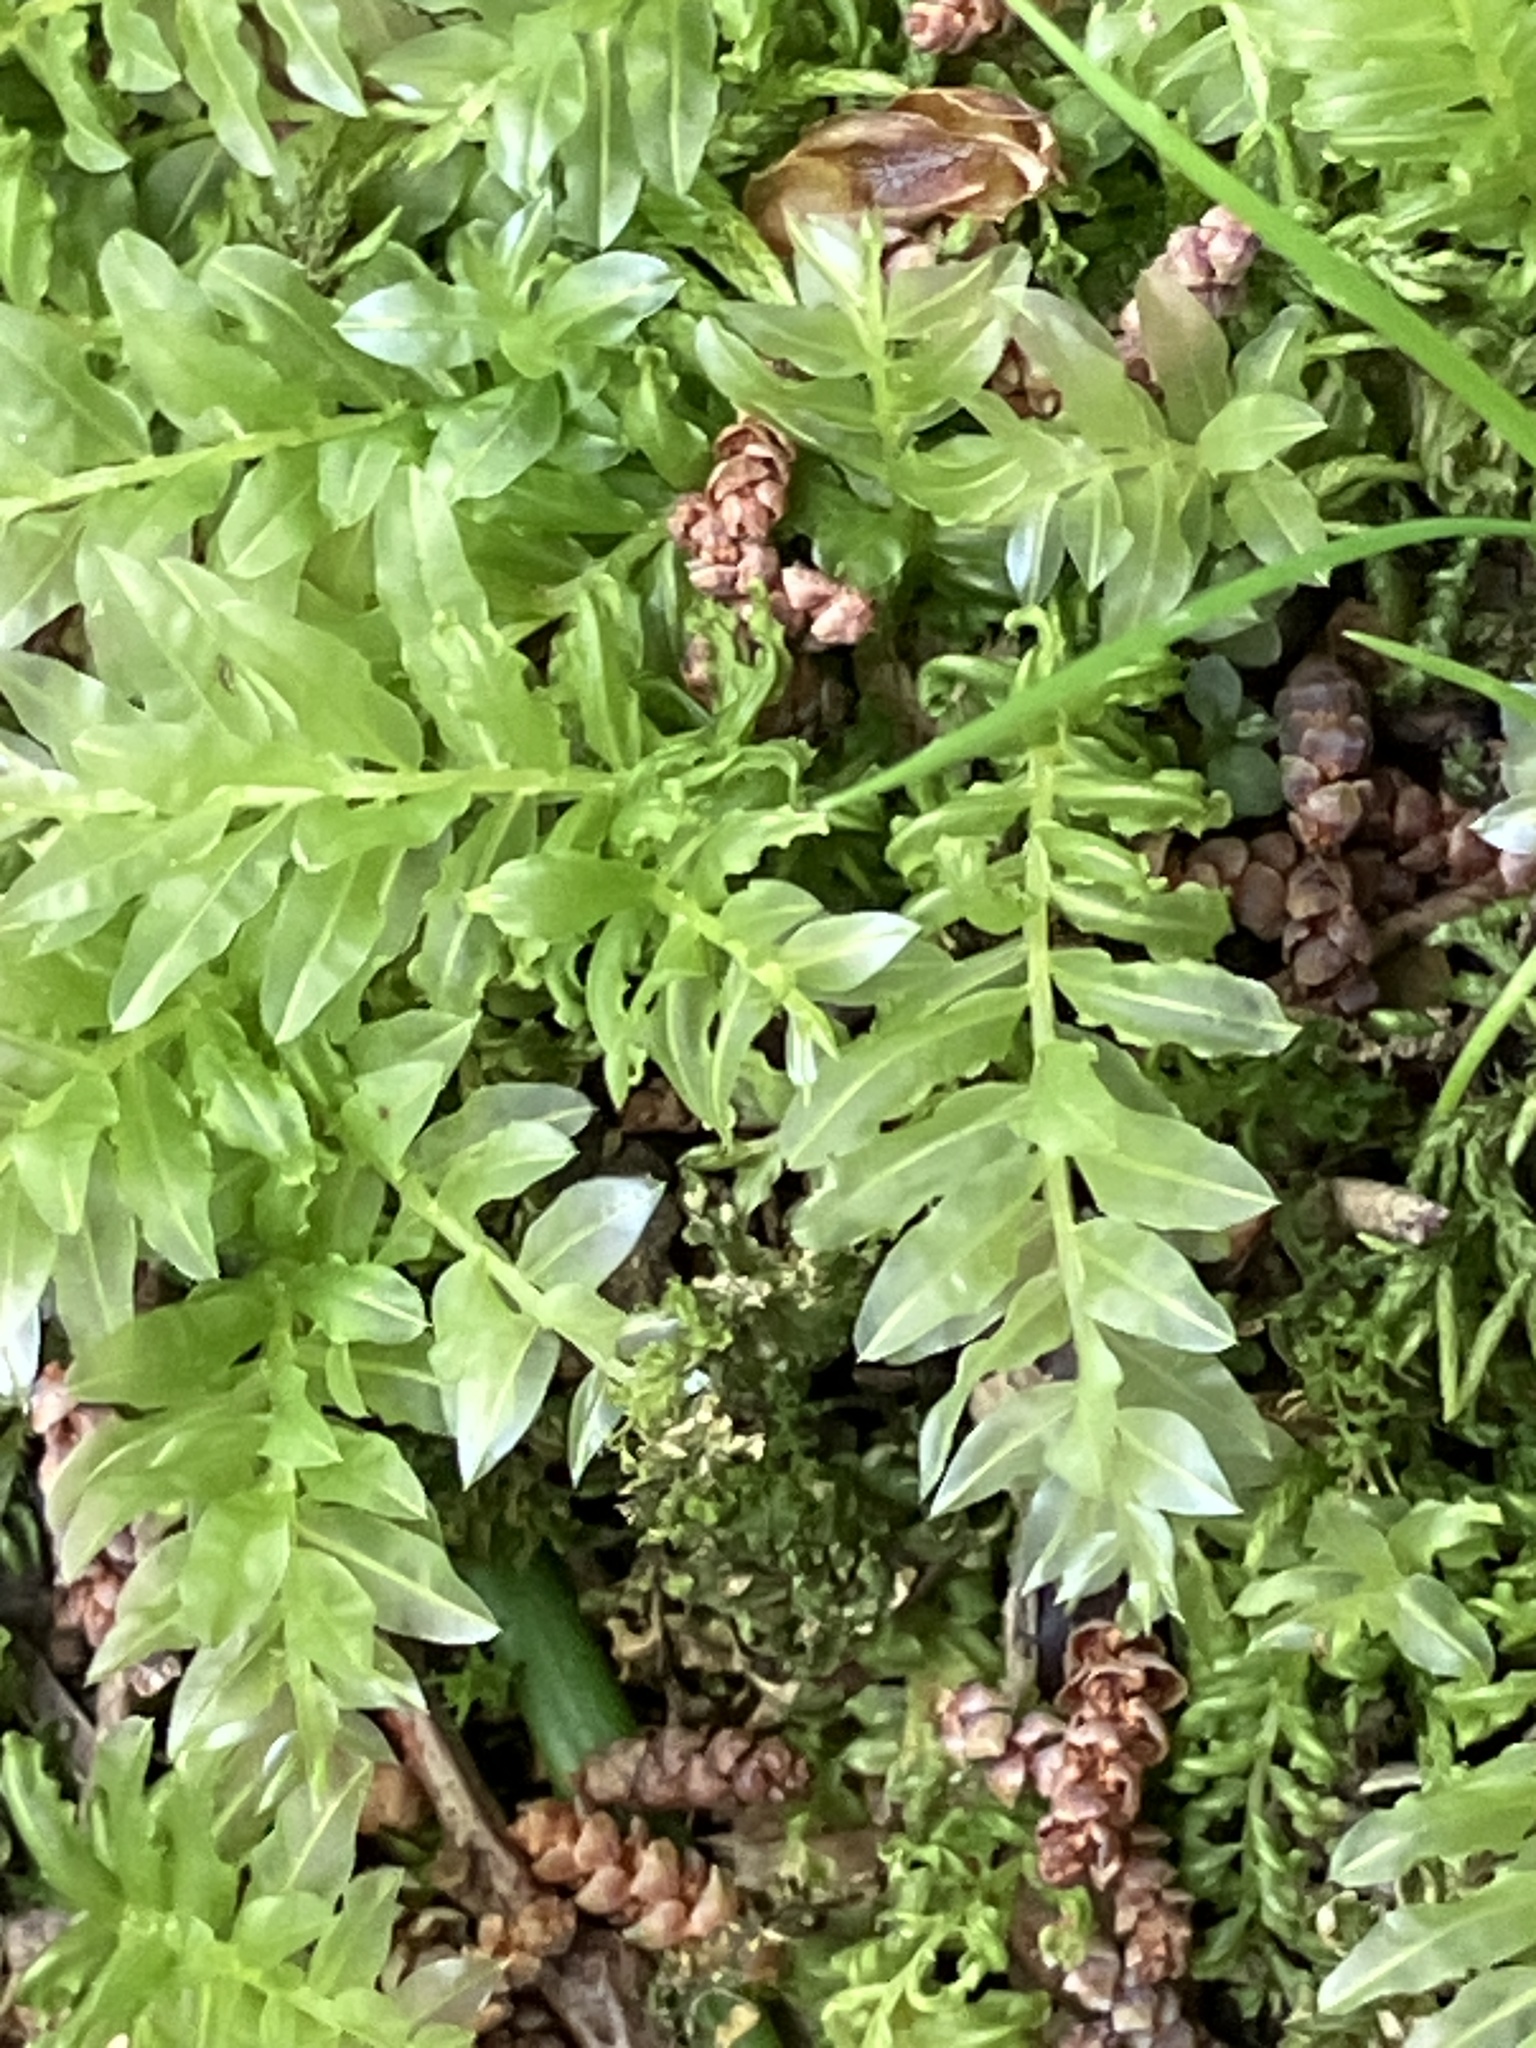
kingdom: Plantae
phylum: Bryophyta
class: Bryopsida
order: Bryales
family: Mniaceae
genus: Plagiomnium
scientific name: Plagiomnium undulatum
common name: Hart's-tongue thyme-moss
